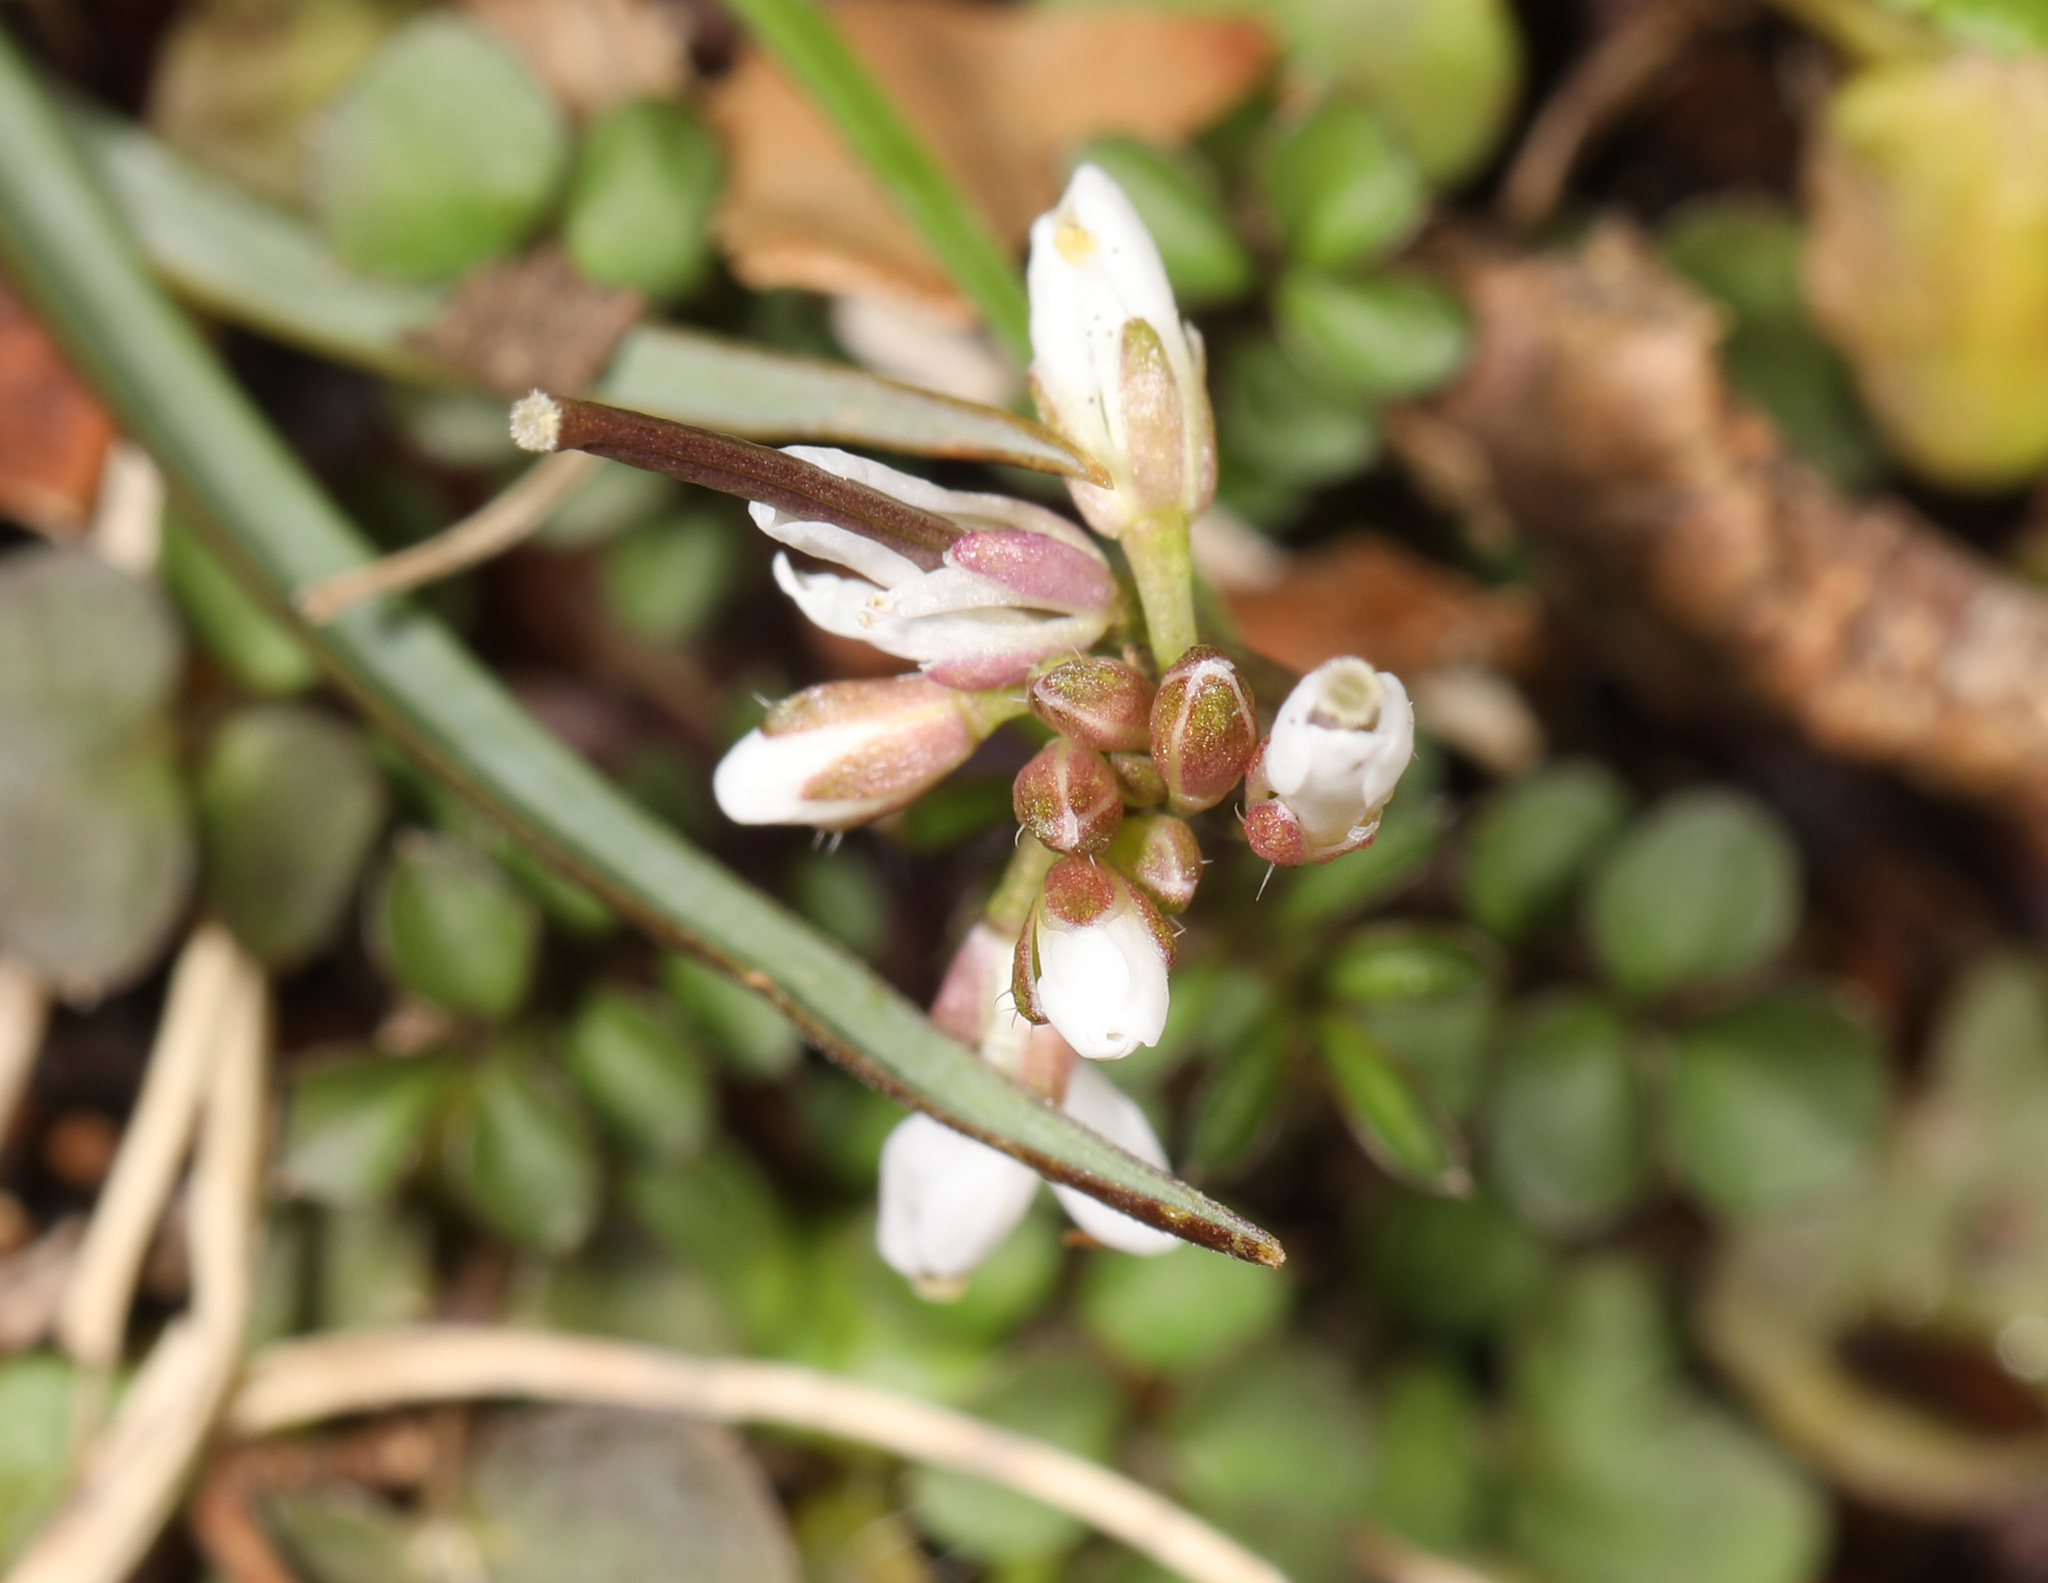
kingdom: Plantae
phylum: Tracheophyta
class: Magnoliopsida
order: Brassicales
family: Brassicaceae
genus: Cardamine
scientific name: Cardamine hirsuta
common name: Hairy bittercress
